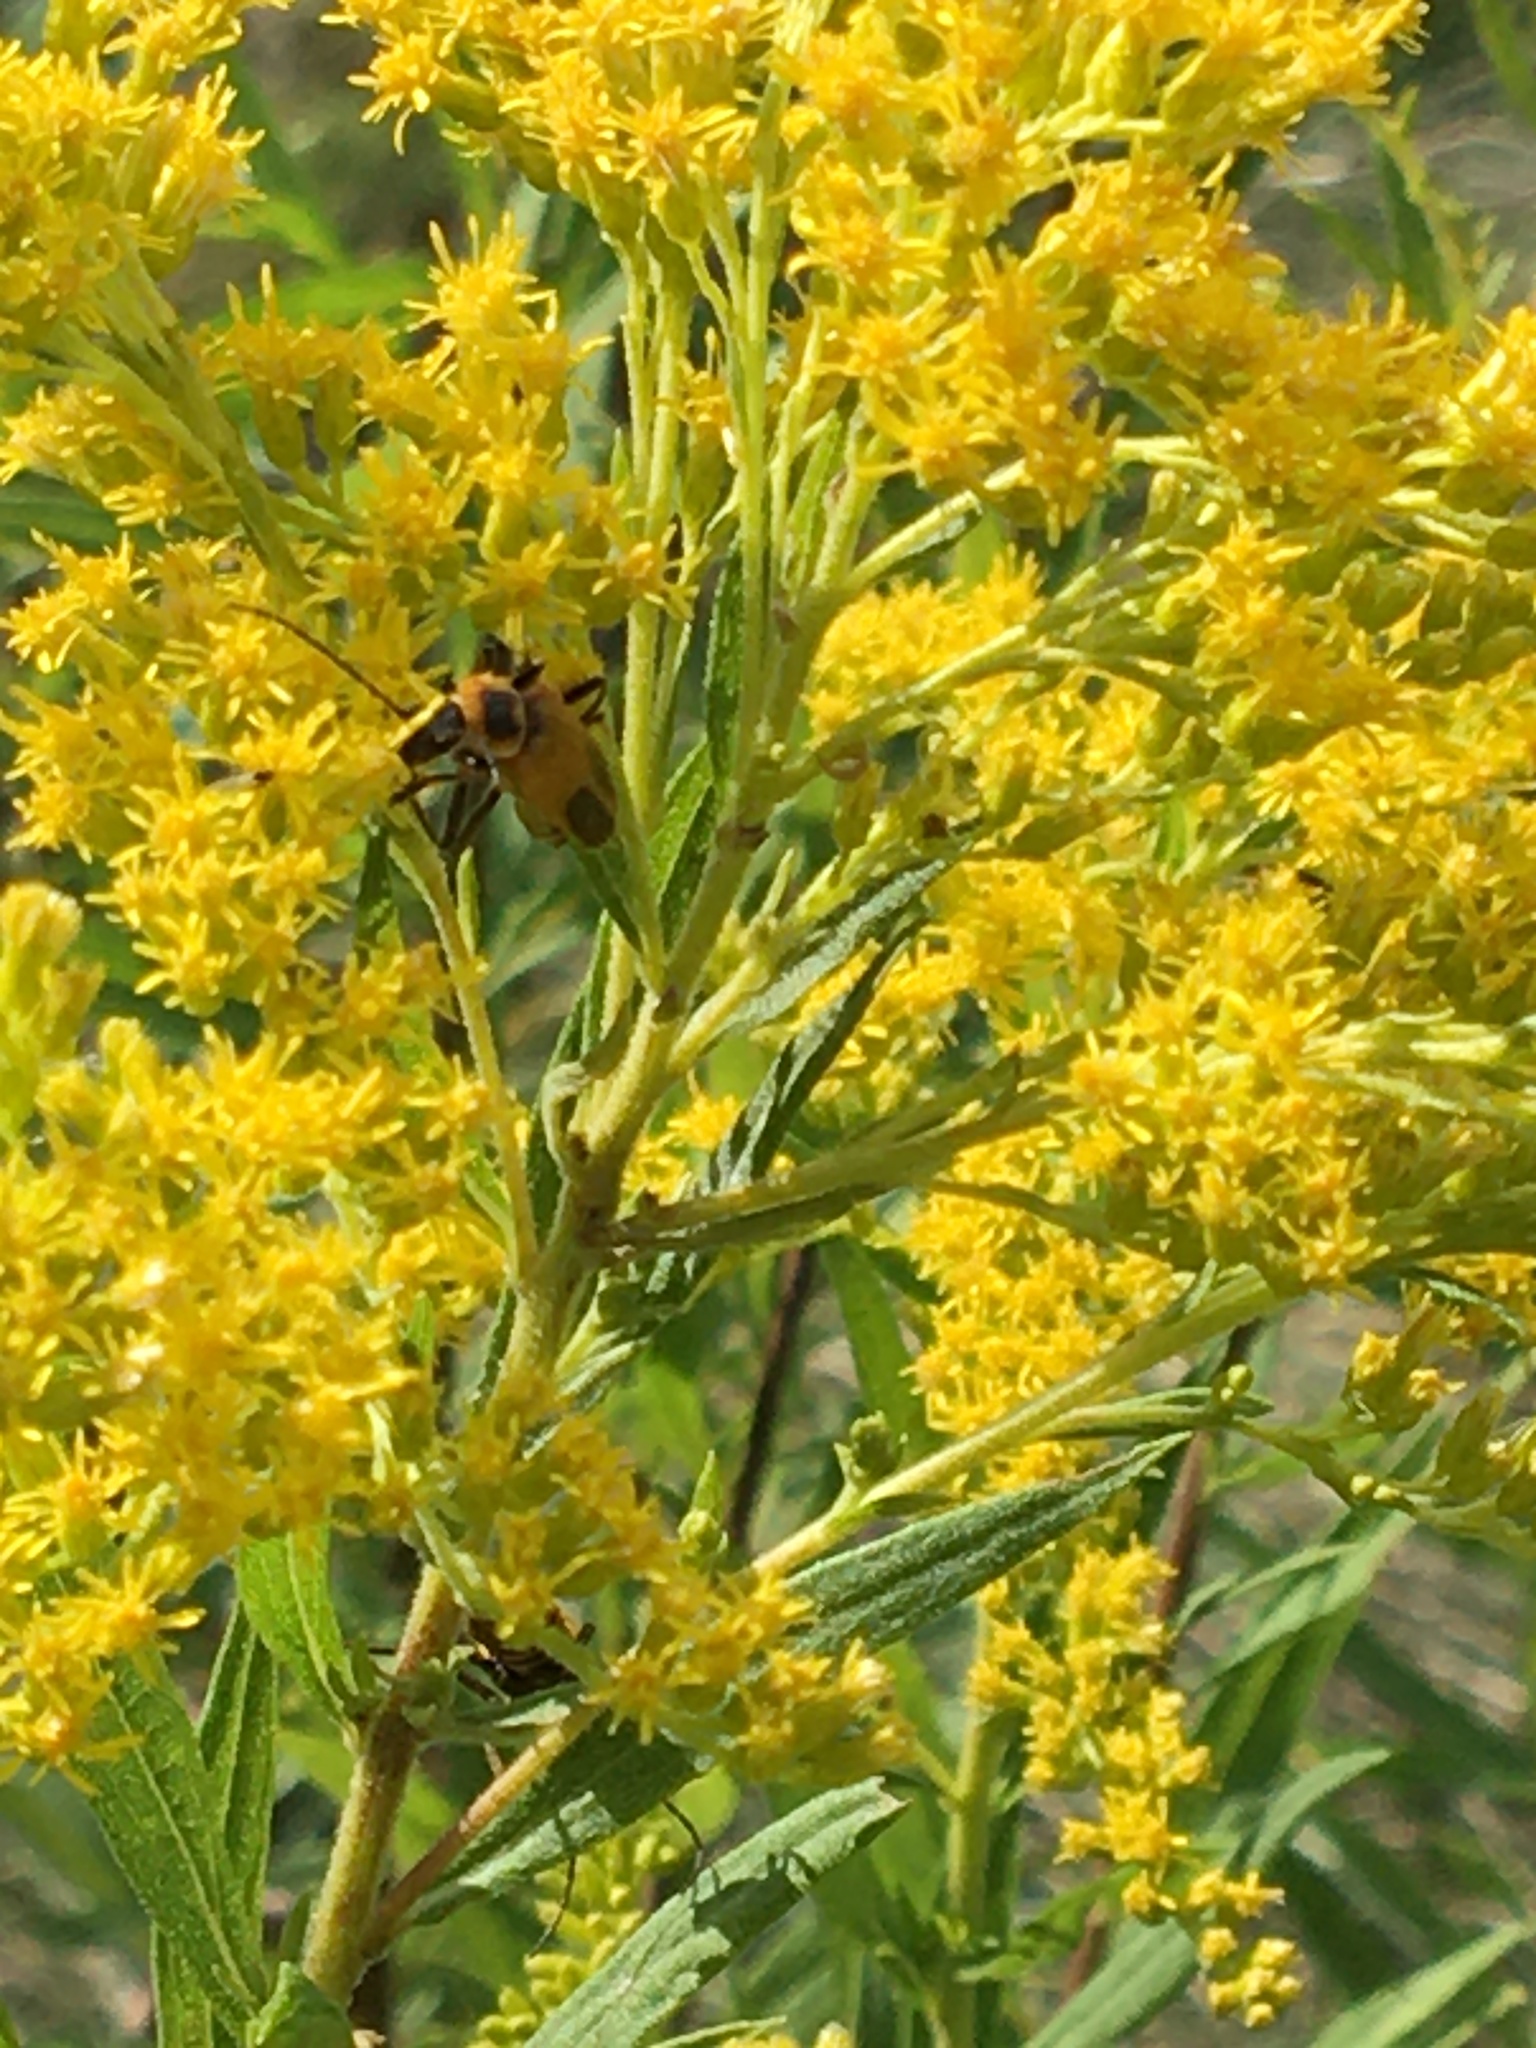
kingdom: Animalia
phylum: Arthropoda
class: Insecta
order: Coleoptera
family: Cantharidae
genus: Chauliognathus
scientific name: Chauliognathus pensylvanicus
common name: Goldenrod soldier beetle
